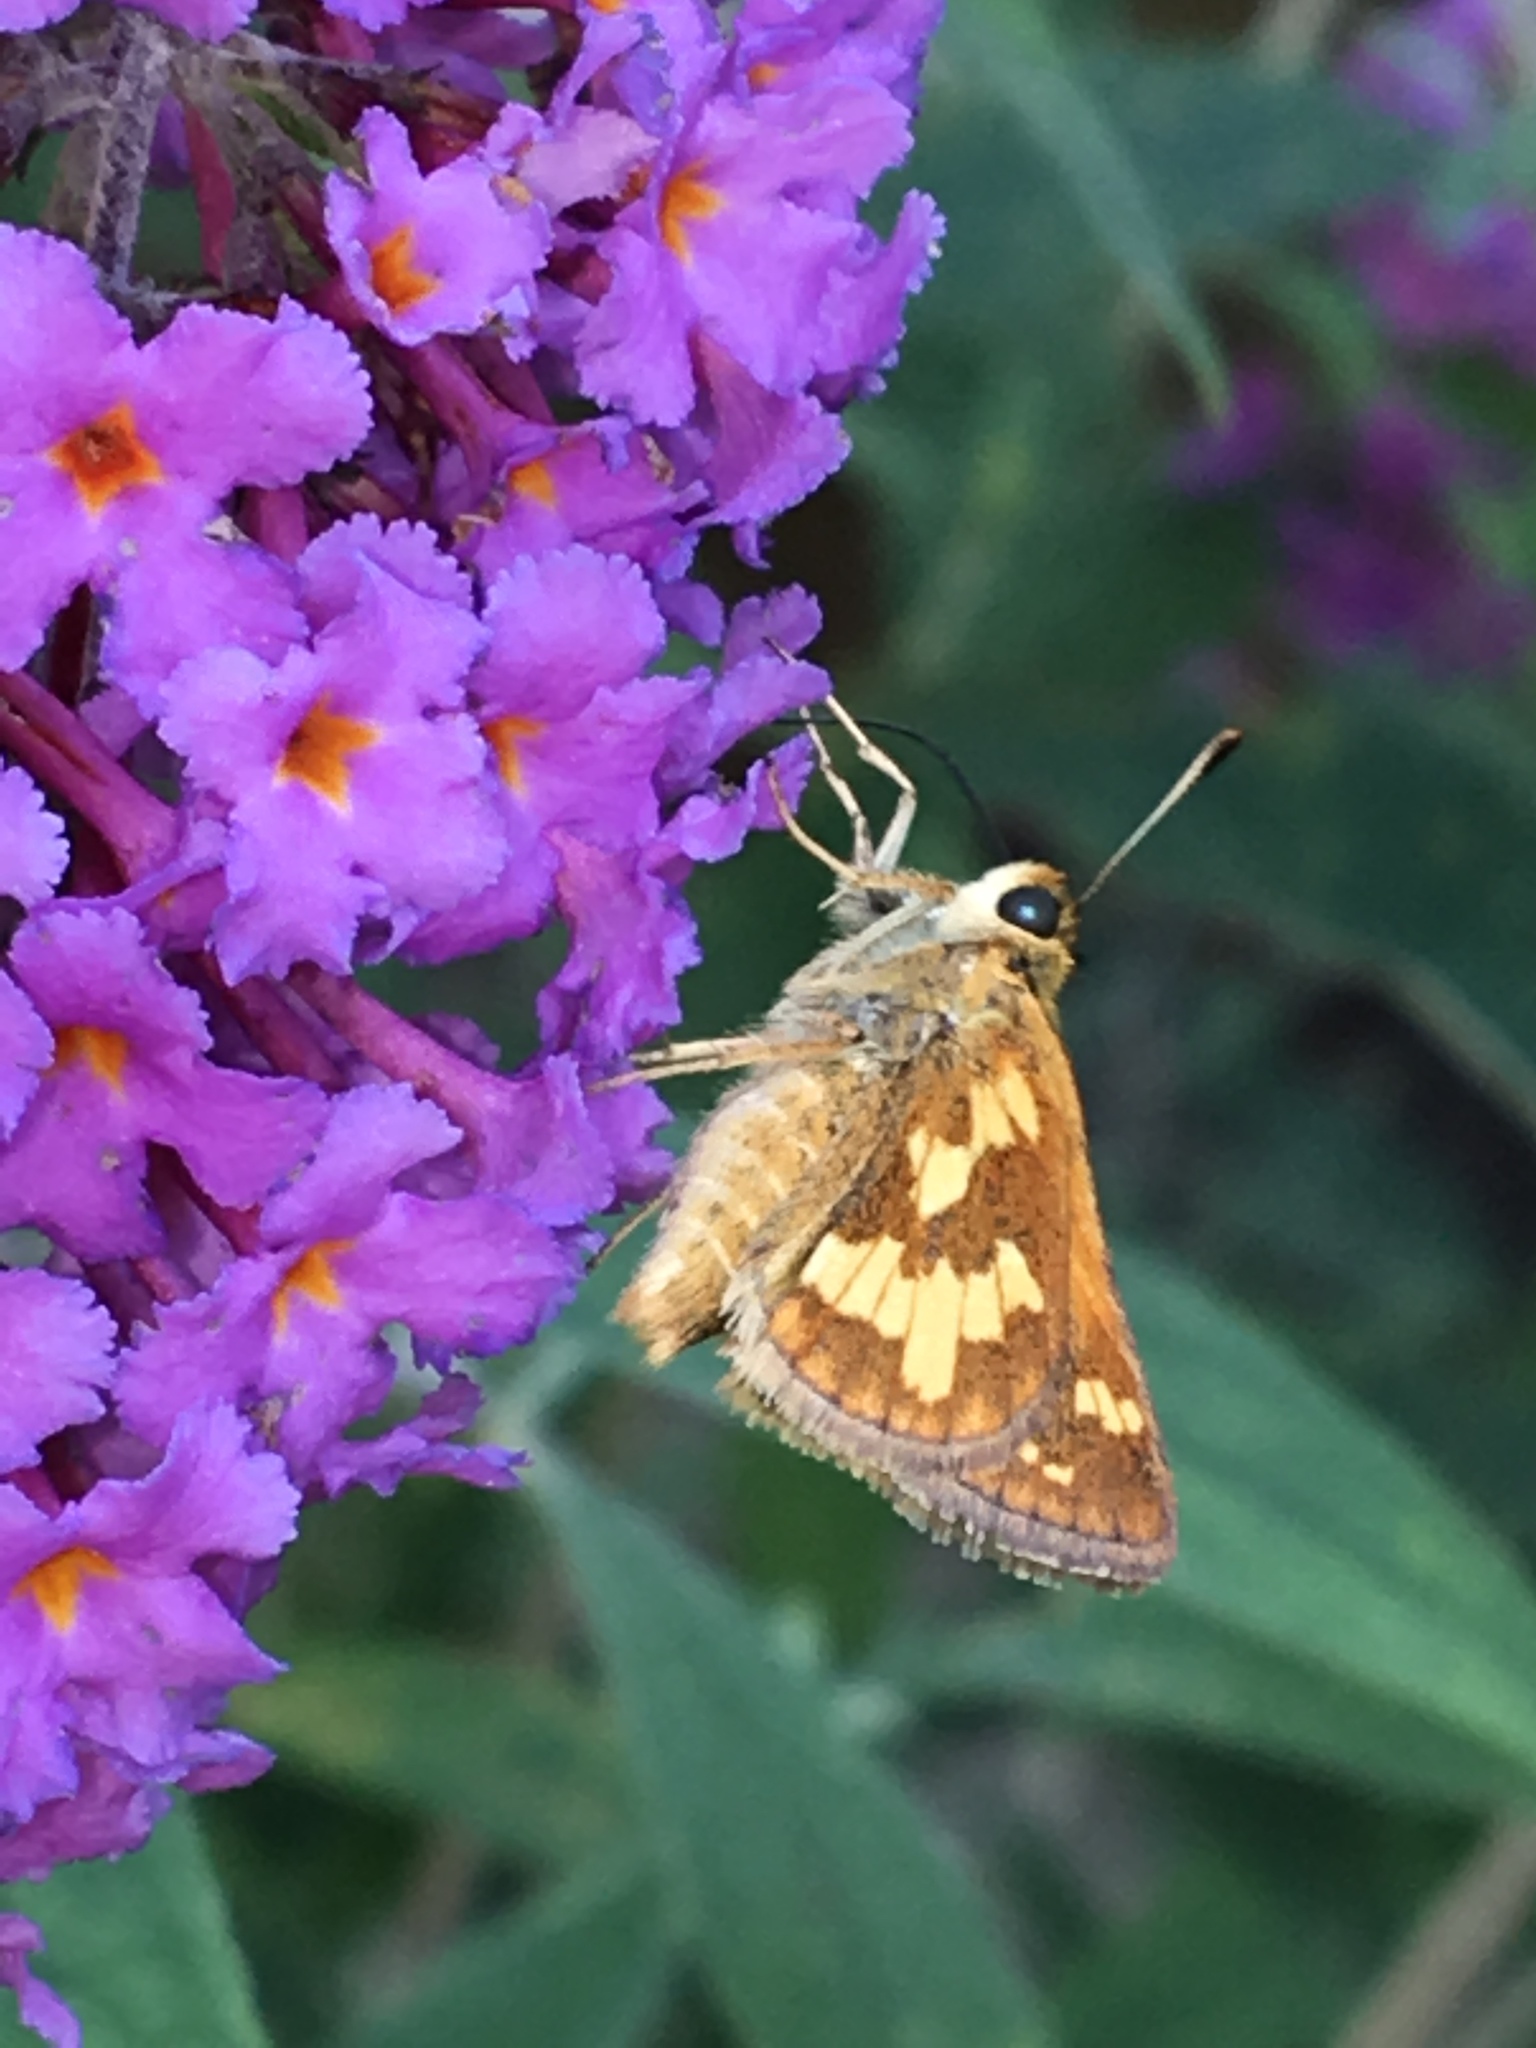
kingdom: Animalia
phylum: Arthropoda
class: Insecta
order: Lepidoptera
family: Hesperiidae
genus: Polites
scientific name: Polites coras
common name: Peck's skipper
